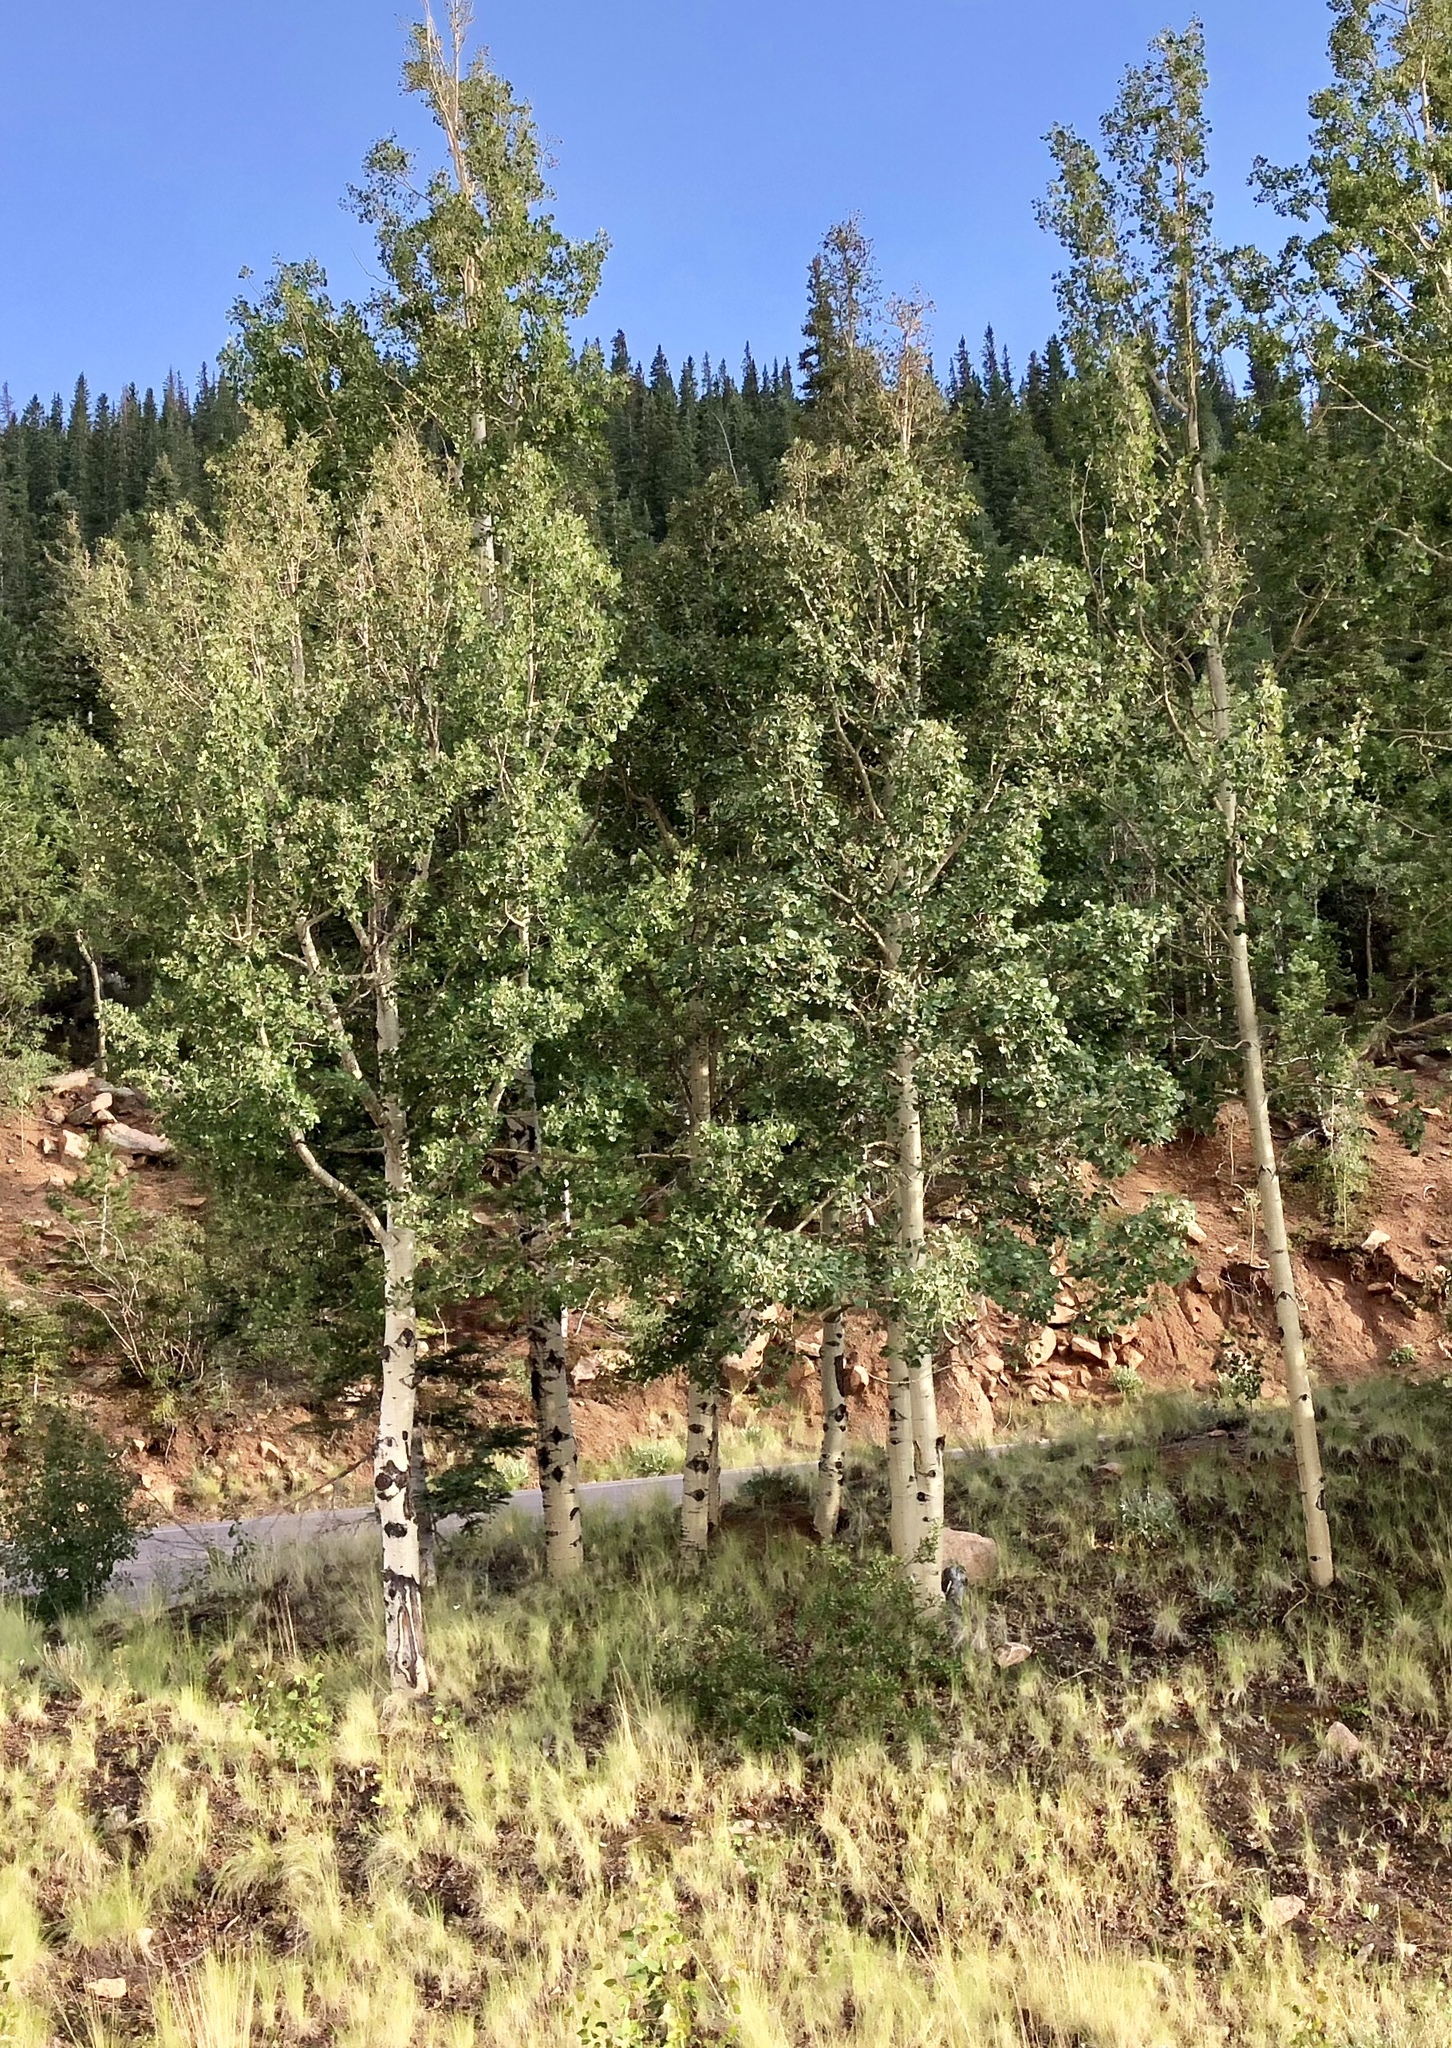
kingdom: Plantae
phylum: Tracheophyta
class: Magnoliopsida
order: Malpighiales
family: Salicaceae
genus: Populus
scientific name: Populus tremuloides
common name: Quaking aspen
